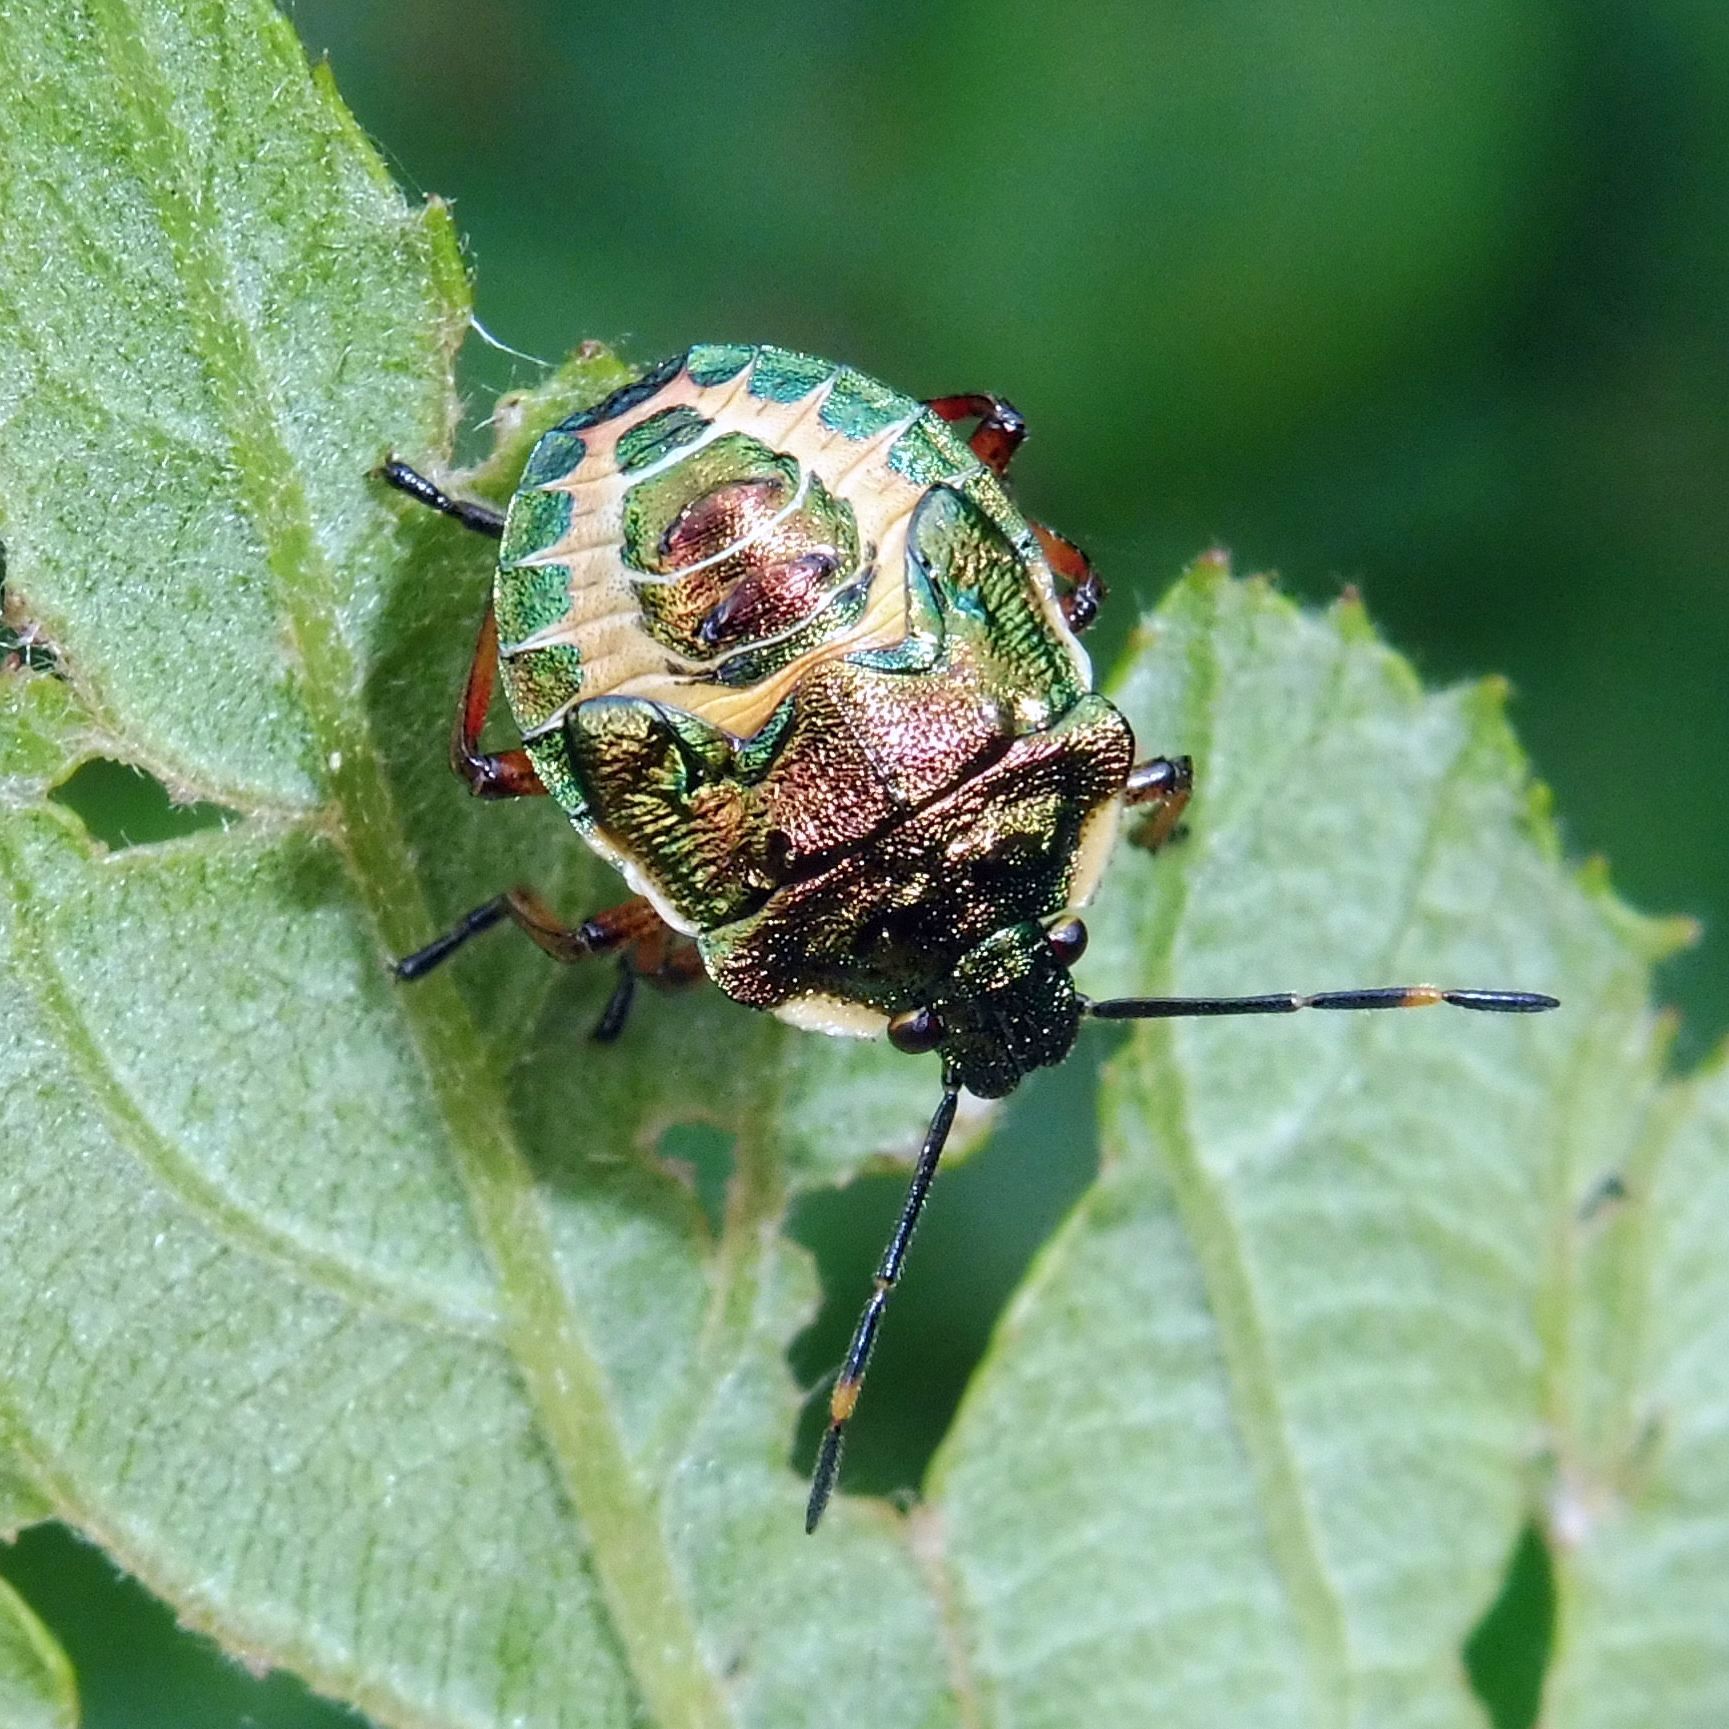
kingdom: Animalia
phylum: Arthropoda
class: Insecta
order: Hemiptera
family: Pentatomidae
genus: Troilus
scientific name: Troilus luridus
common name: Bronze shieldbug
